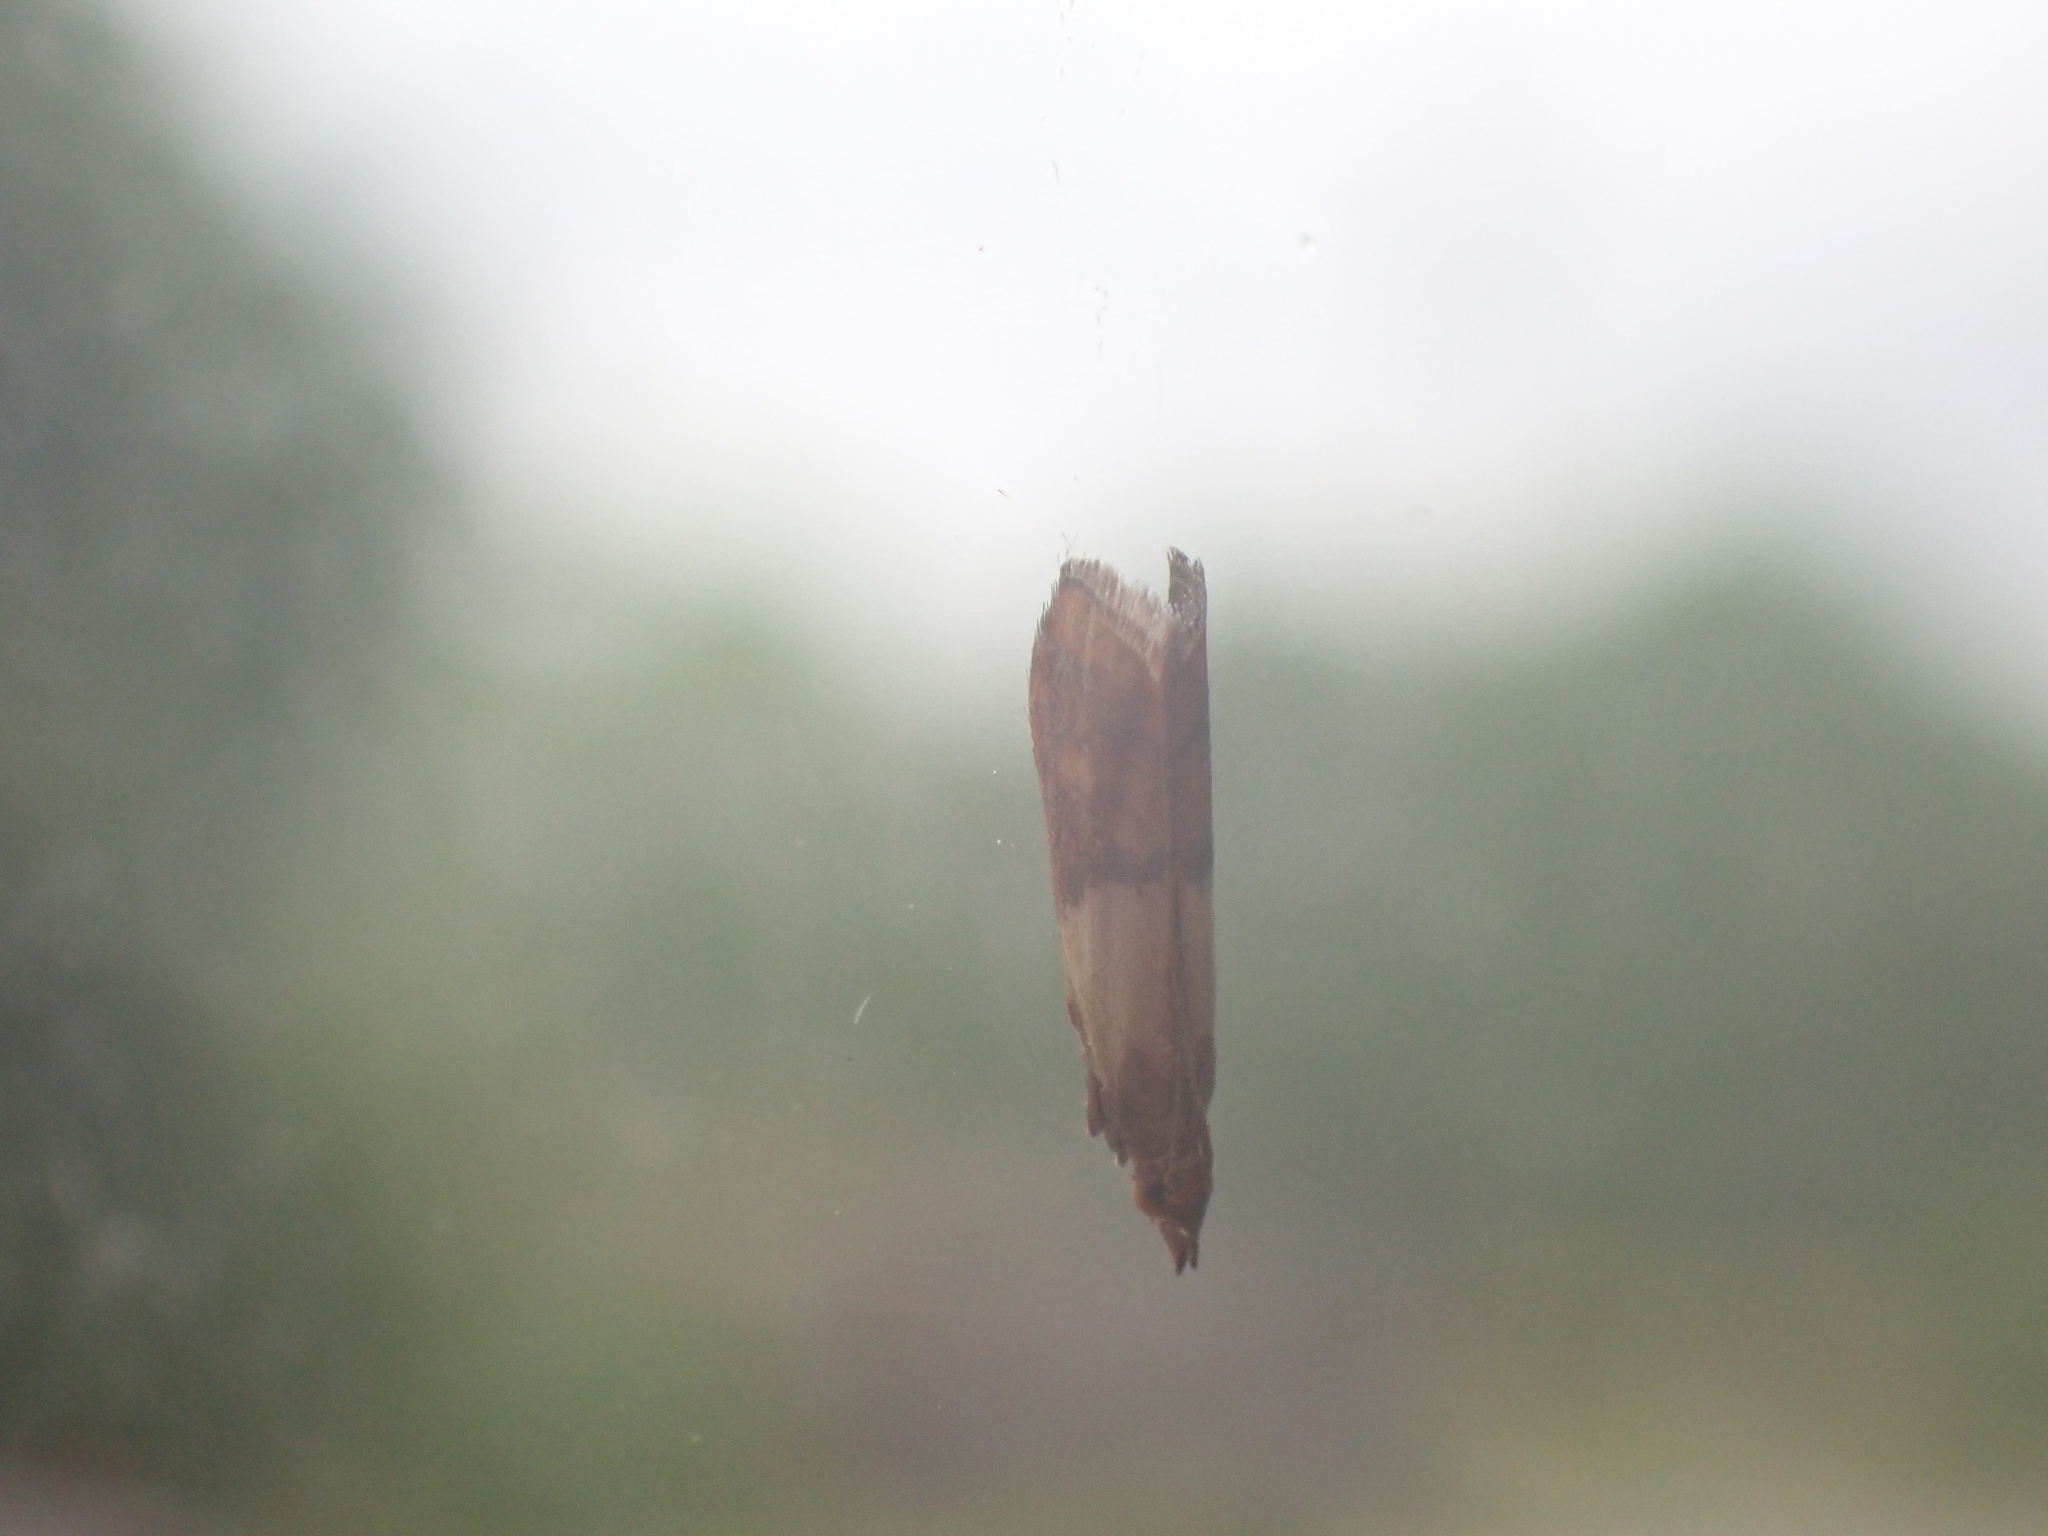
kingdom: Animalia
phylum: Arthropoda
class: Insecta
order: Lepidoptera
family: Pyralidae
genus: Plodia
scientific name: Plodia interpunctella
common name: Indian meal moth
